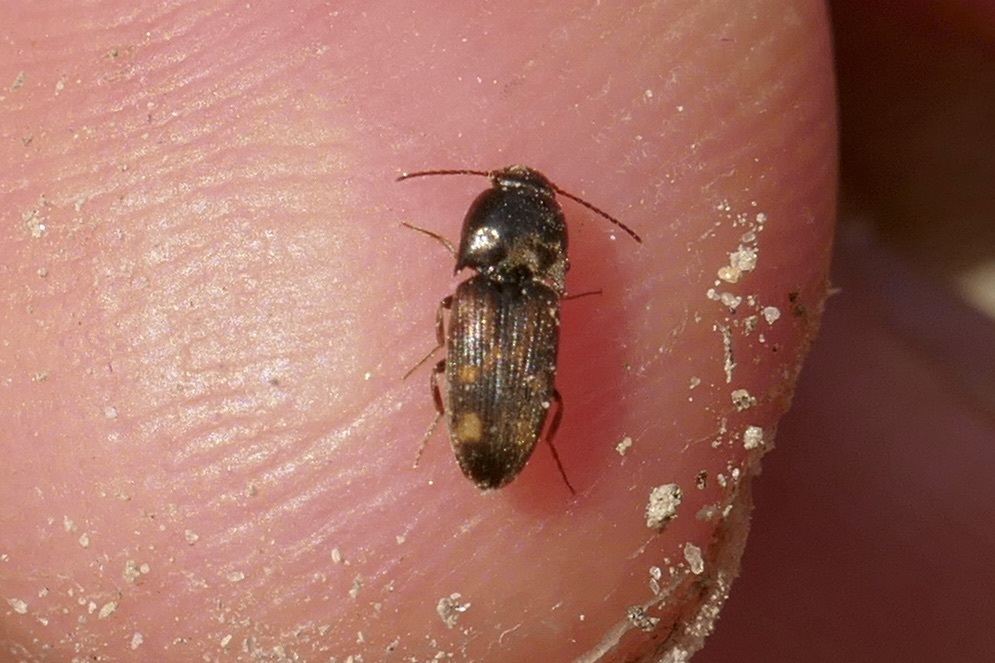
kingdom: Animalia
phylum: Arthropoda
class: Insecta
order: Coleoptera
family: Elateridae
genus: Drasterius
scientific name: Drasterius bimaculatus
